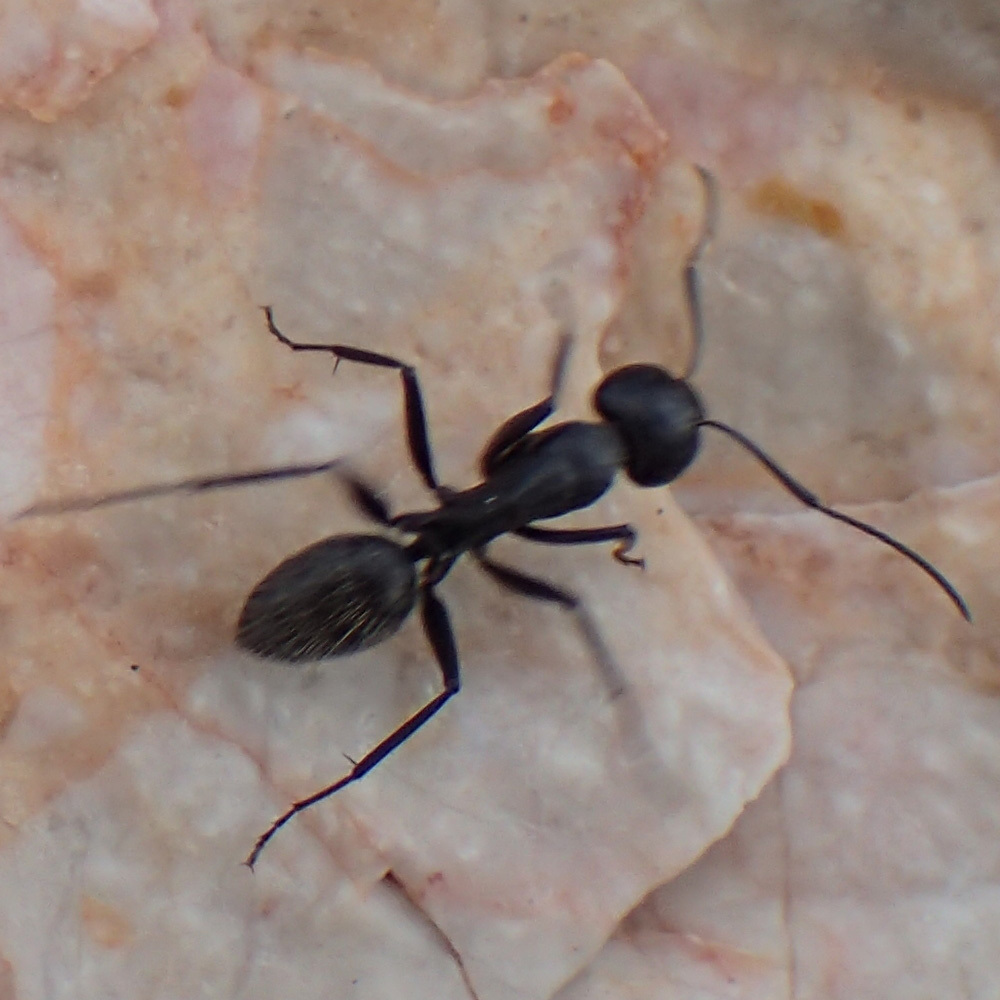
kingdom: Animalia
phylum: Arthropoda
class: Insecta
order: Hymenoptera
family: Formicidae
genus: Camponotus
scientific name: Camponotus vagus
